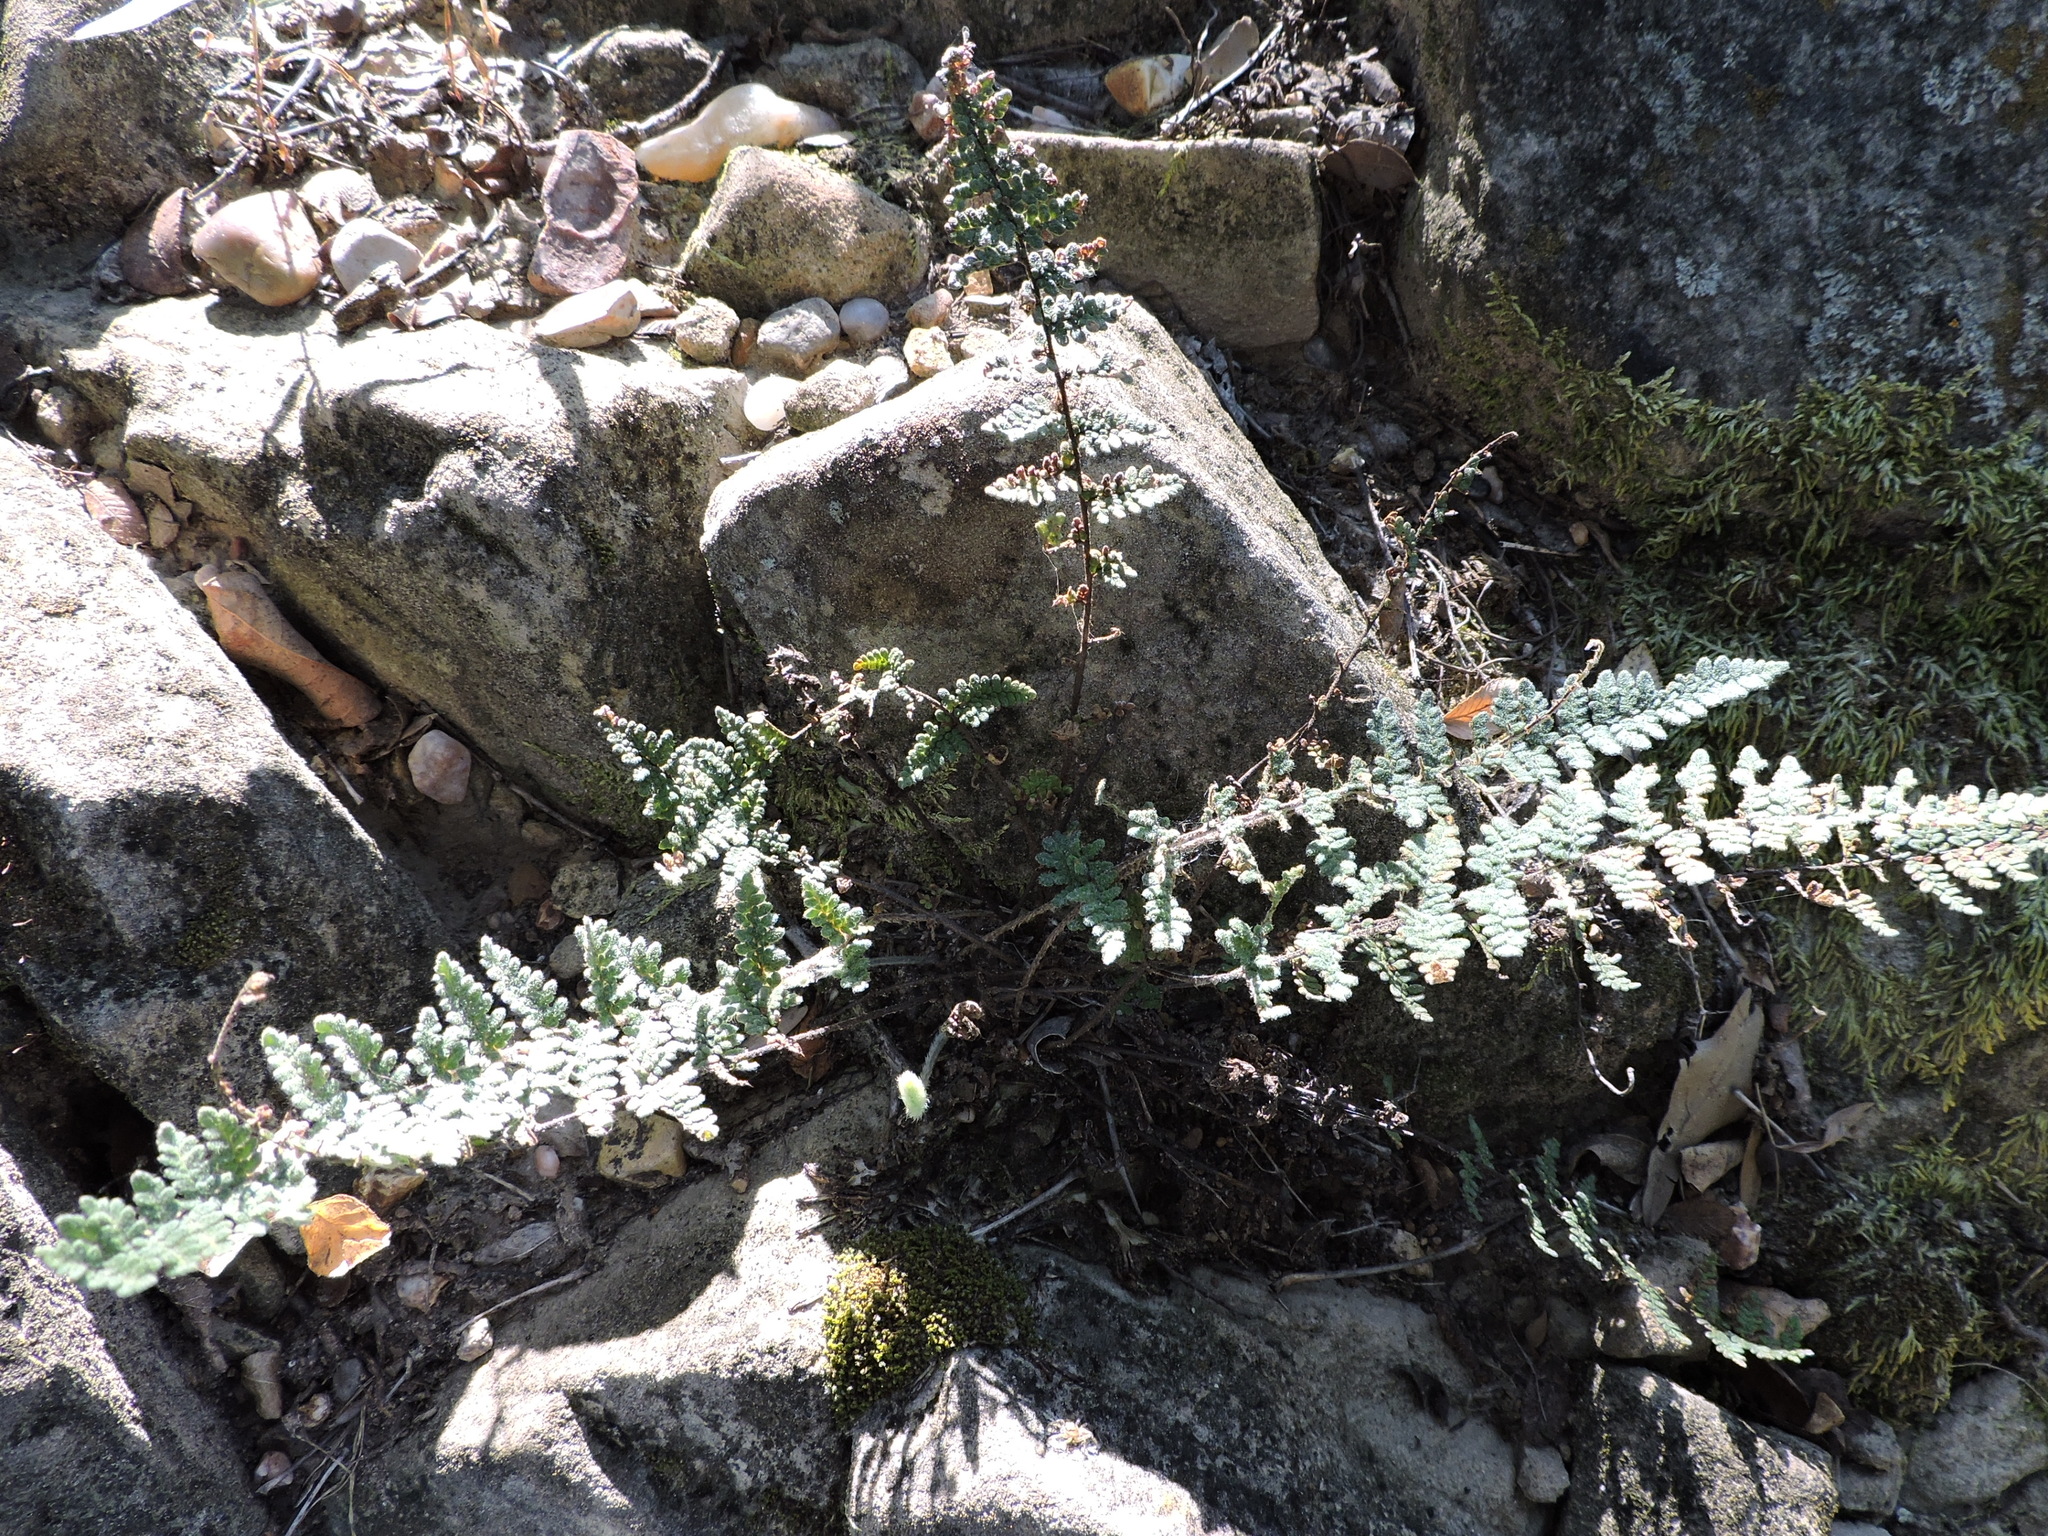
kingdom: Plantae
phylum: Tracheophyta
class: Polypodiopsida
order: Polypodiales
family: Pteridaceae
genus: Myriopteris
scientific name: Myriopteris tomentosa
